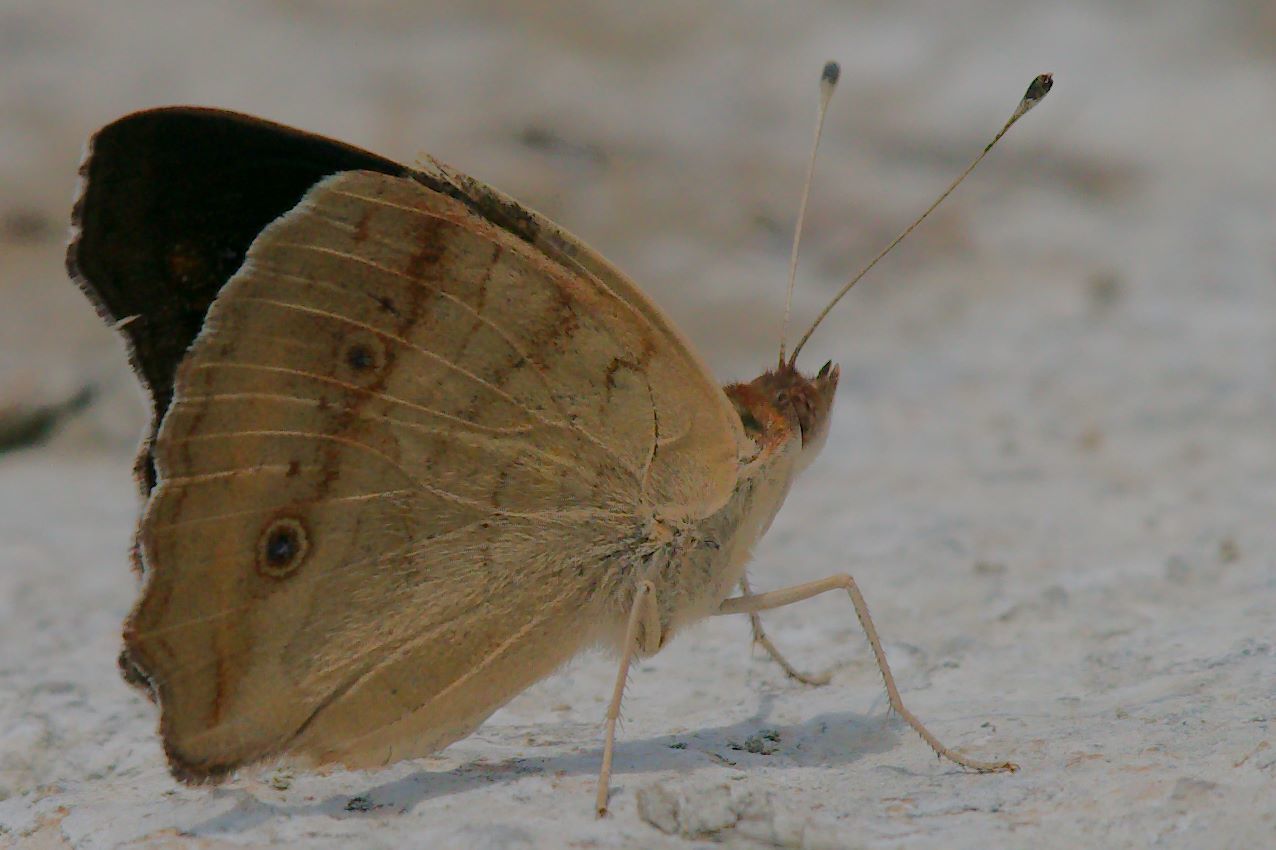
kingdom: Animalia
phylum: Arthropoda
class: Insecta
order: Lepidoptera
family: Nymphalidae
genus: Junonia
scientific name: Junonia coenia
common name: Common buckeye
